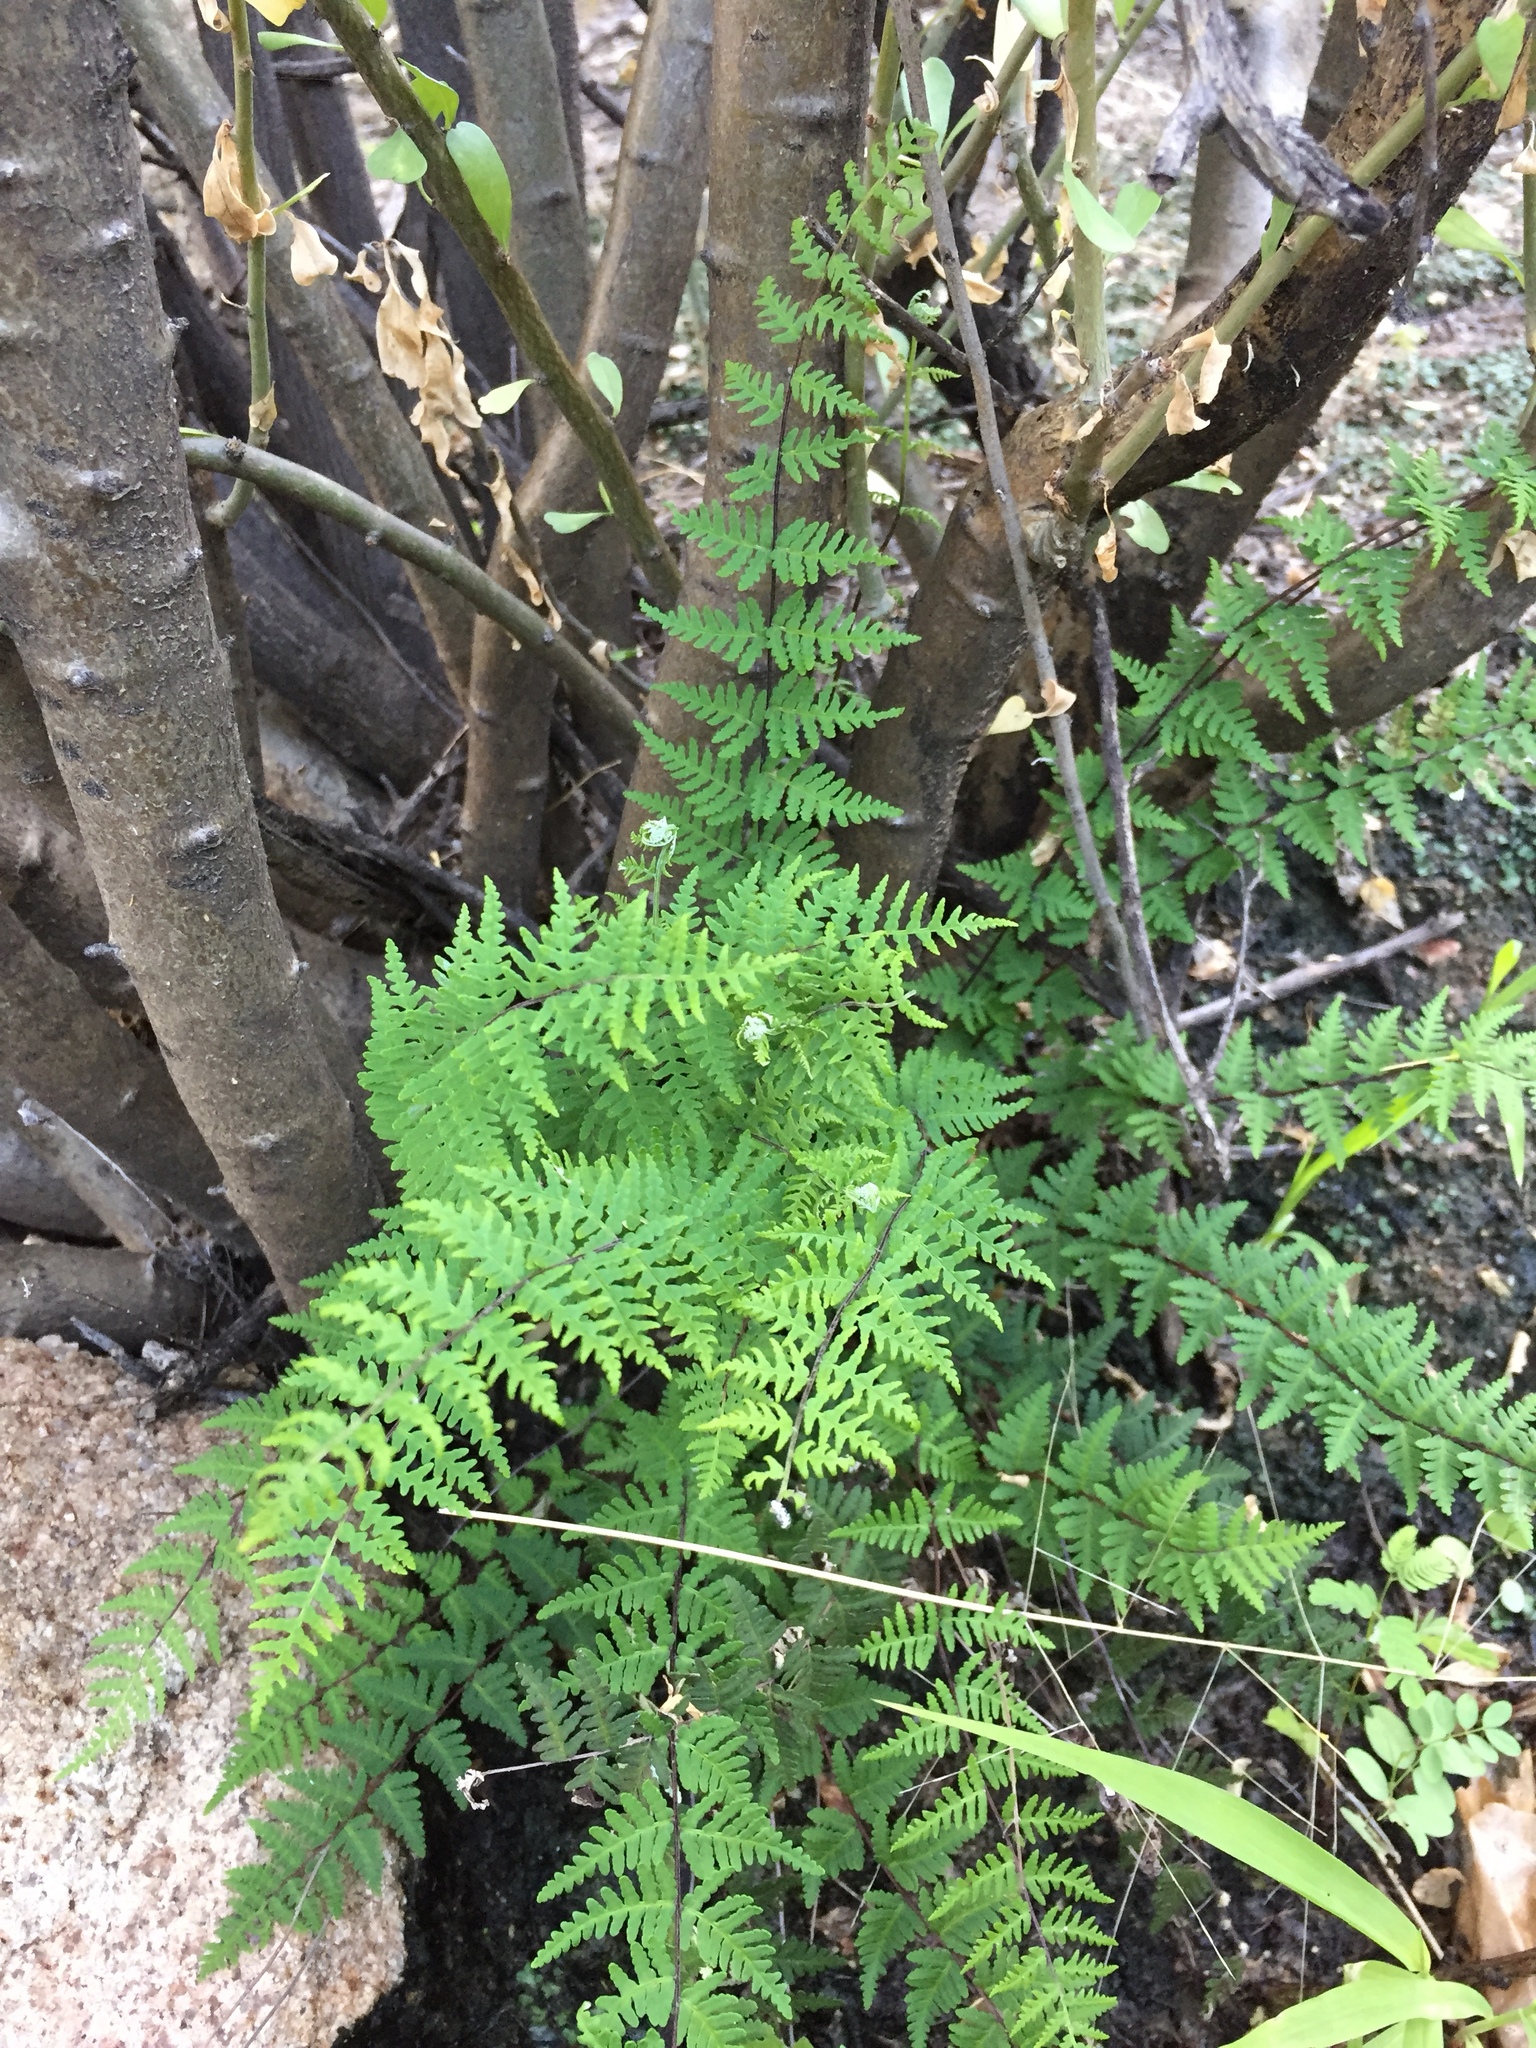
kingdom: Plantae
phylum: Tracheophyta
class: Polypodiopsida
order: Polypodiales
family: Pteridaceae
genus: Notholaena
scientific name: Notholaena lemmonii
